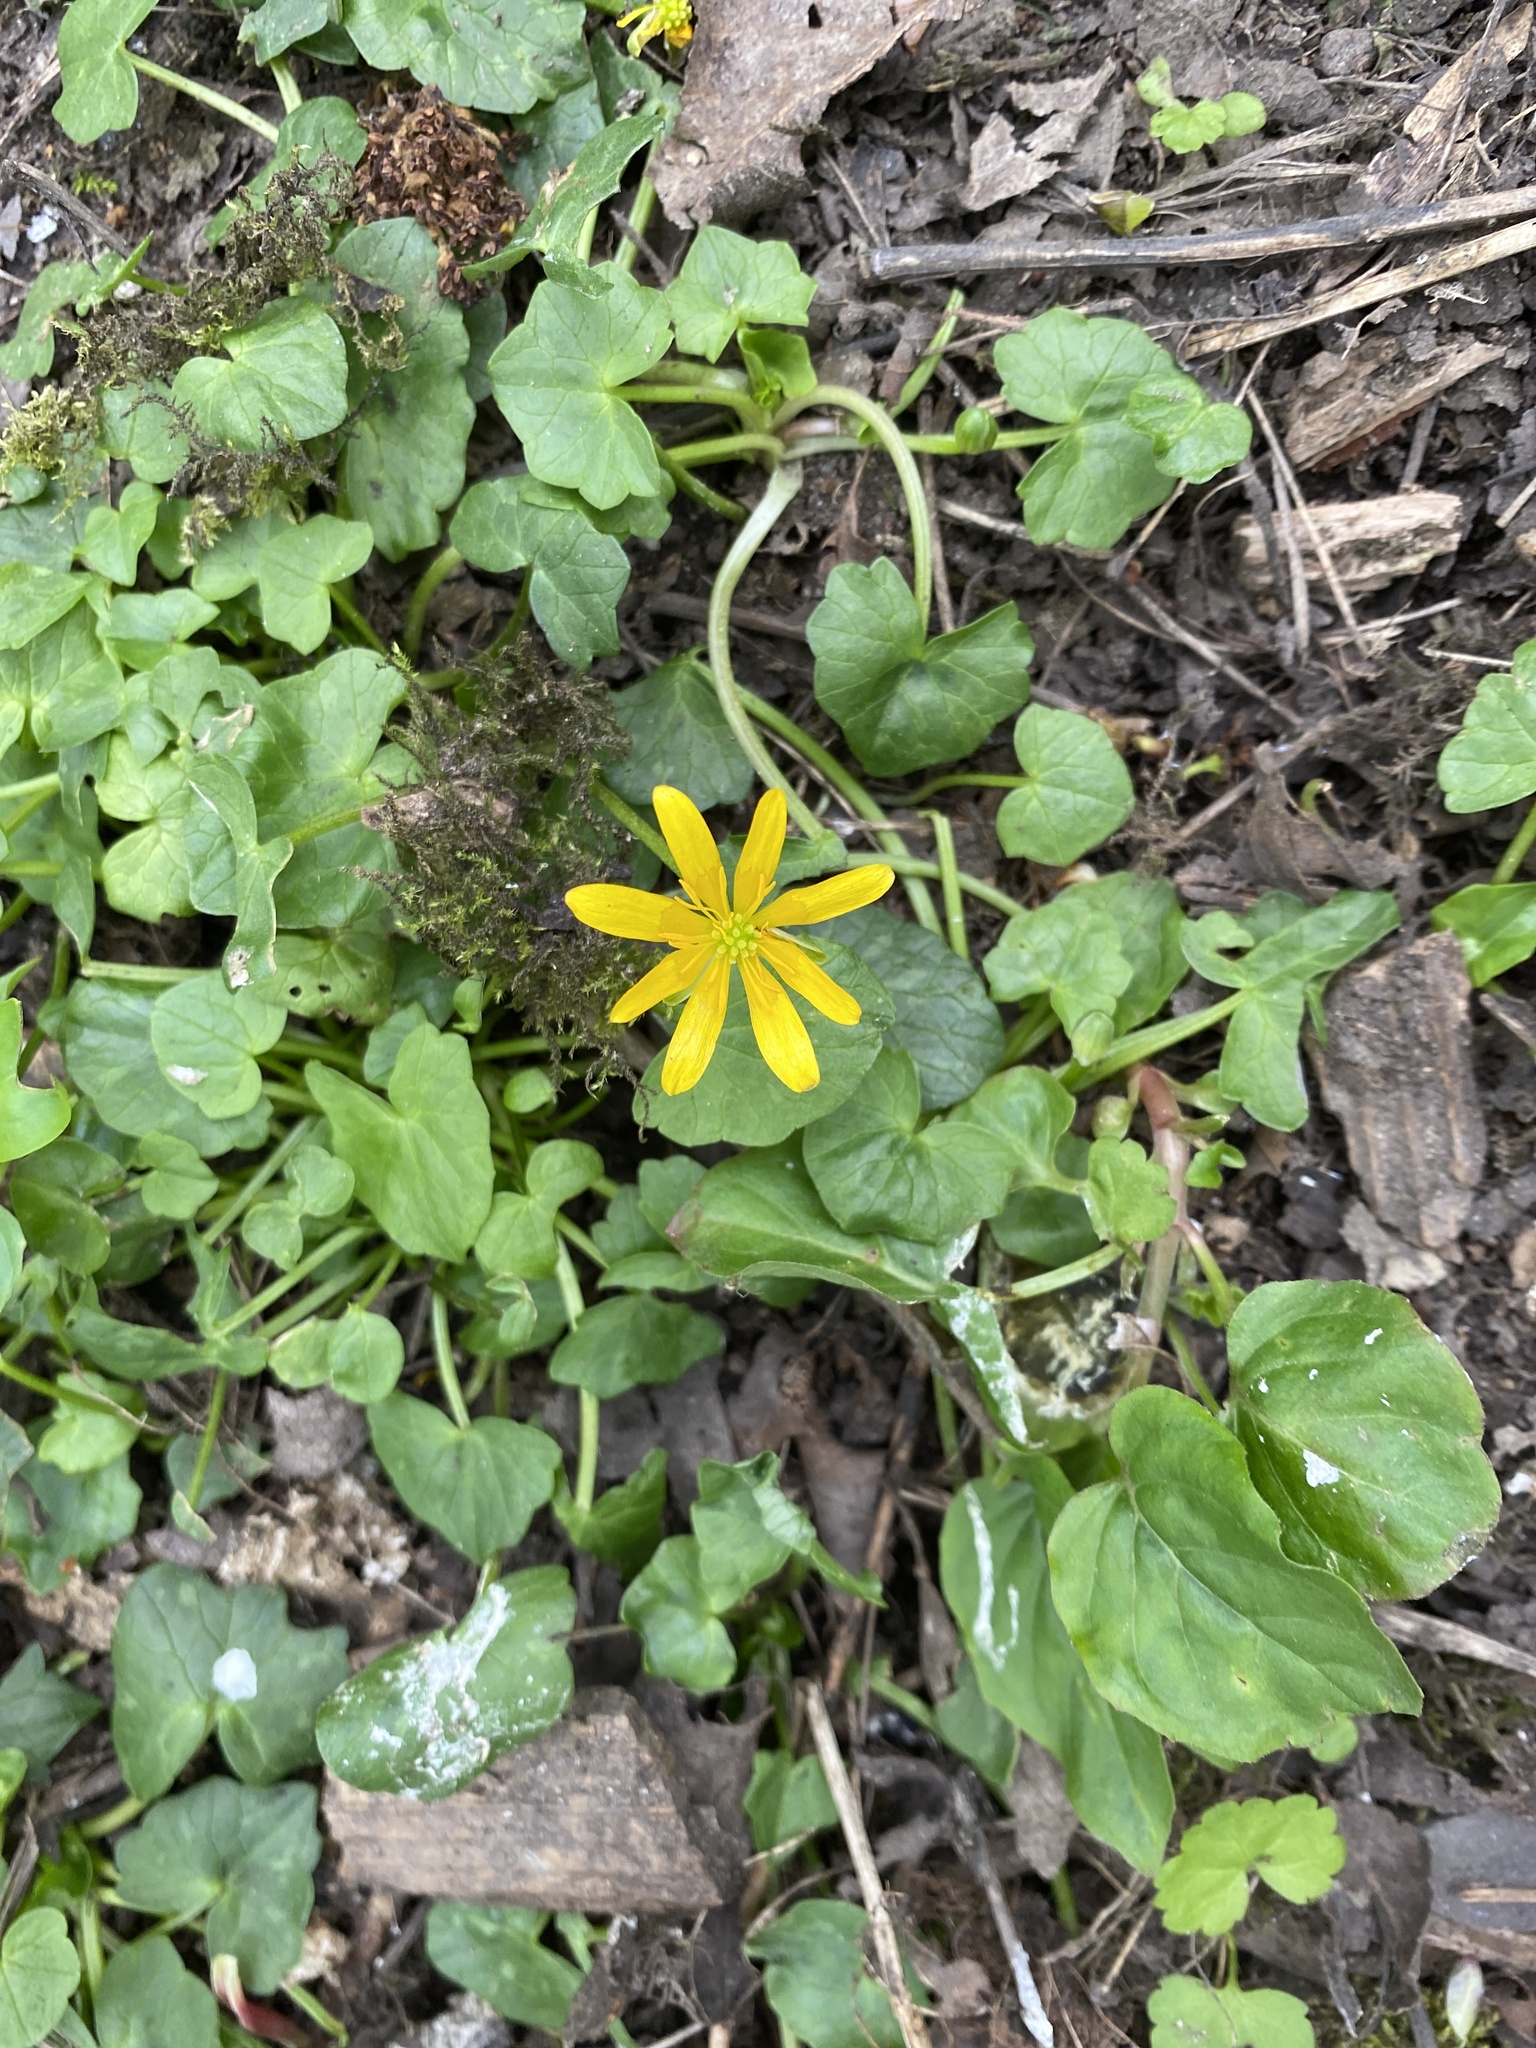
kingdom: Plantae
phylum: Tracheophyta
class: Magnoliopsida
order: Ranunculales
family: Ranunculaceae
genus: Ficaria
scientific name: Ficaria verna
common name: Lesser celandine
